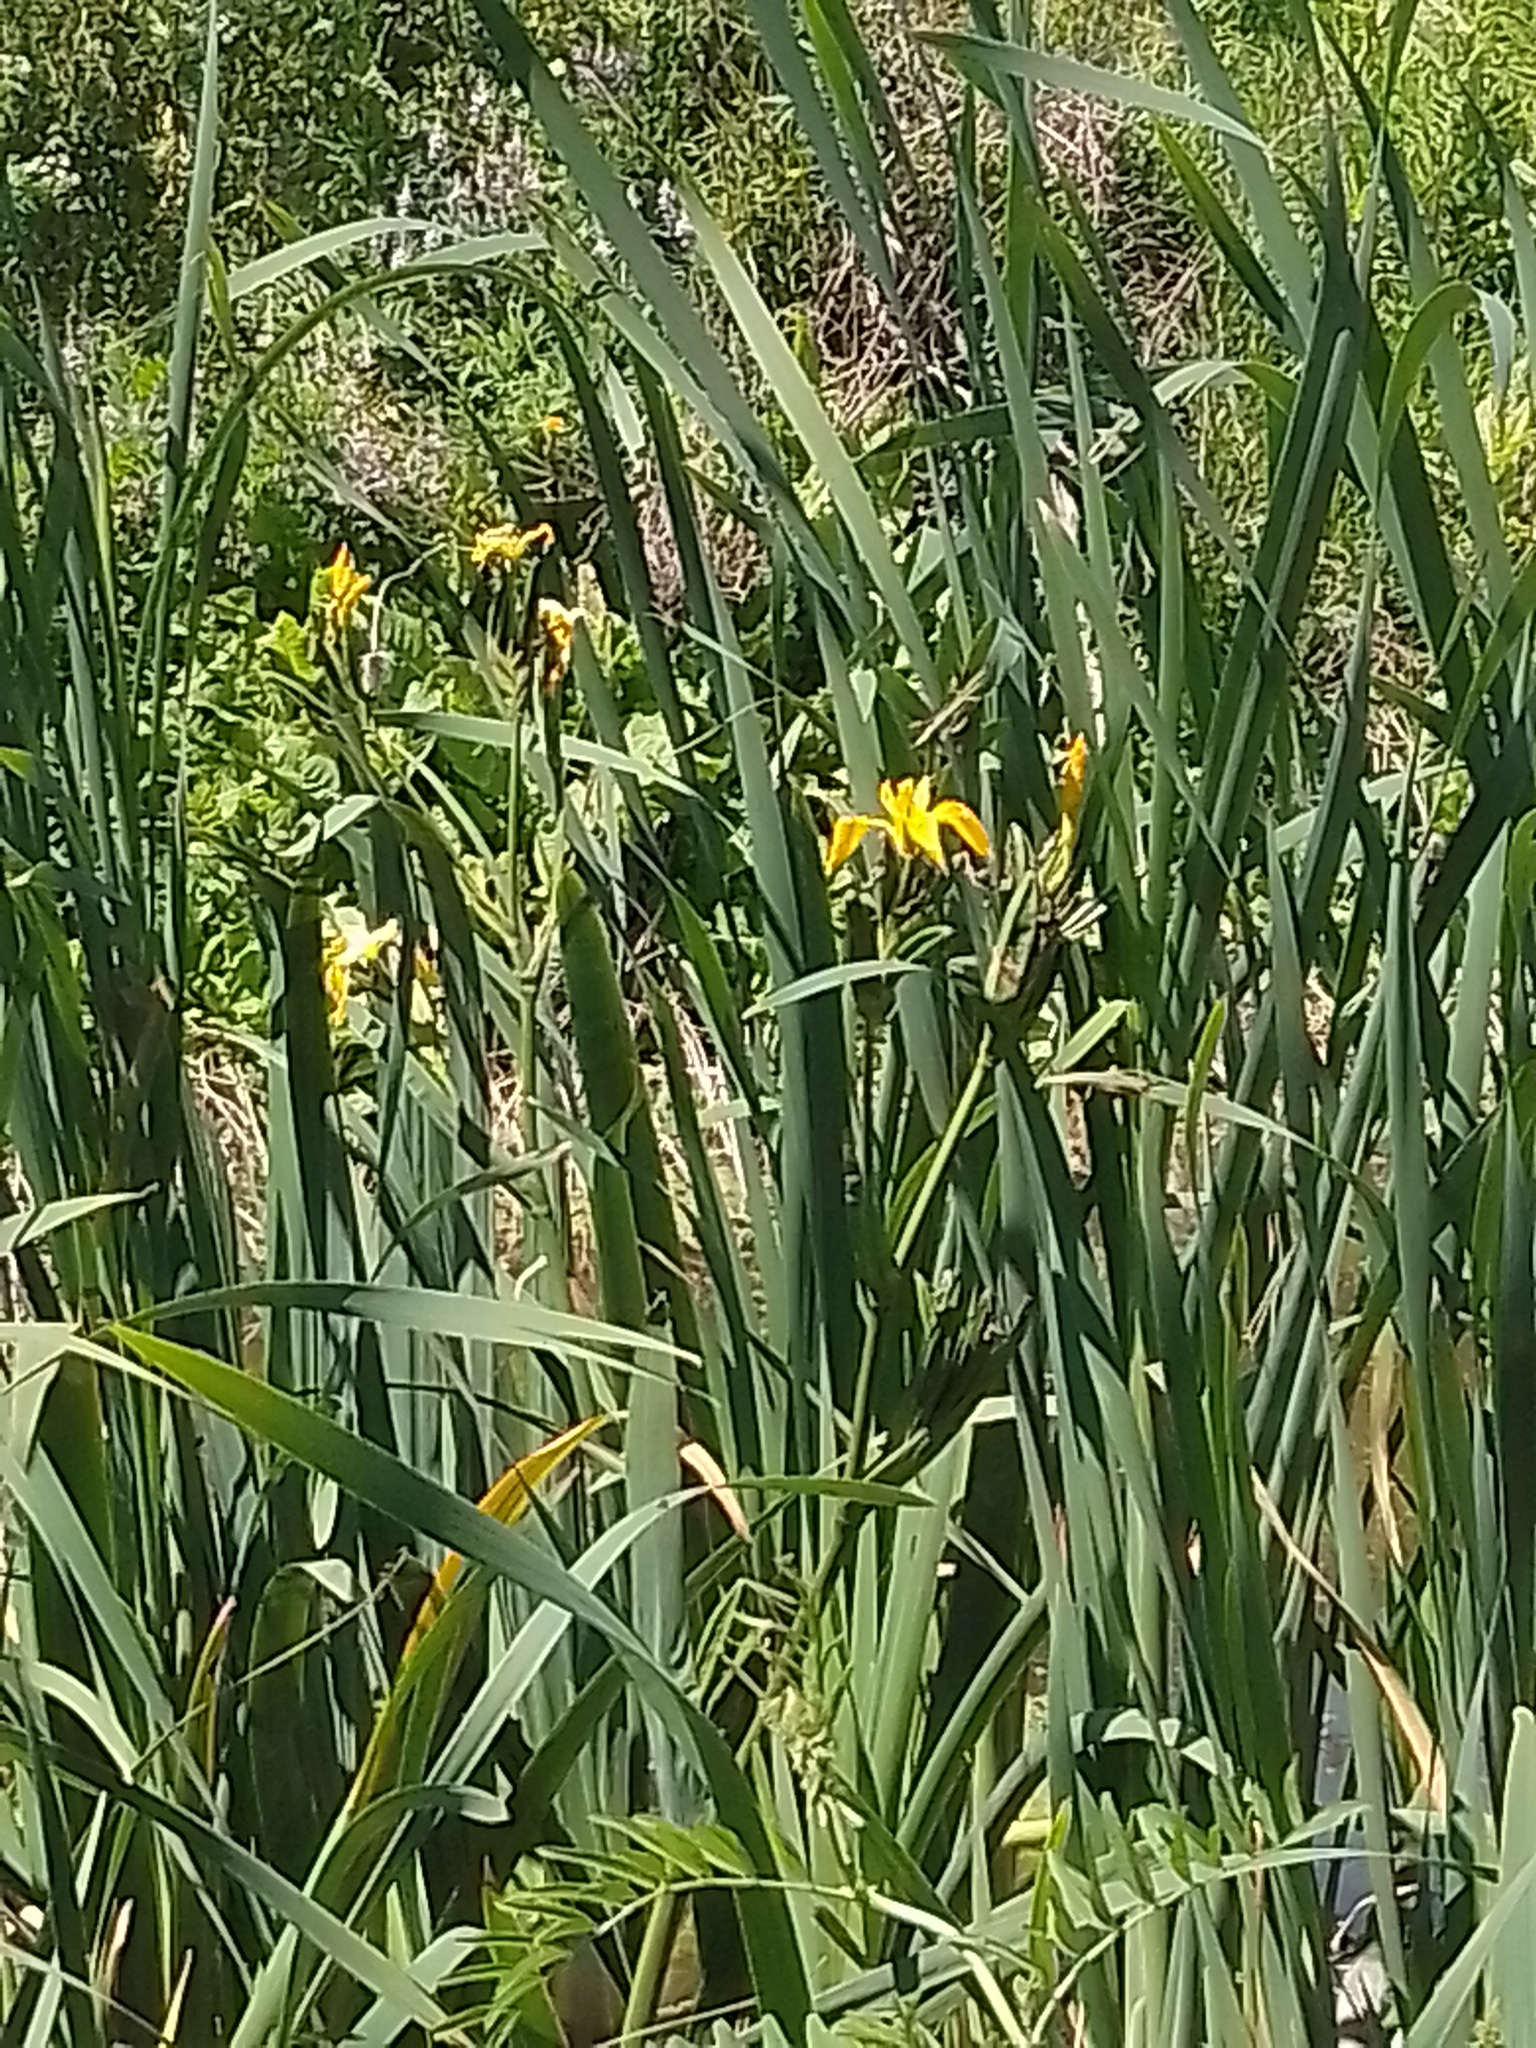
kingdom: Plantae
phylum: Tracheophyta
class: Liliopsida
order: Asparagales
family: Iridaceae
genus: Iris
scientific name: Iris pseudacorus
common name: Yellow flag
